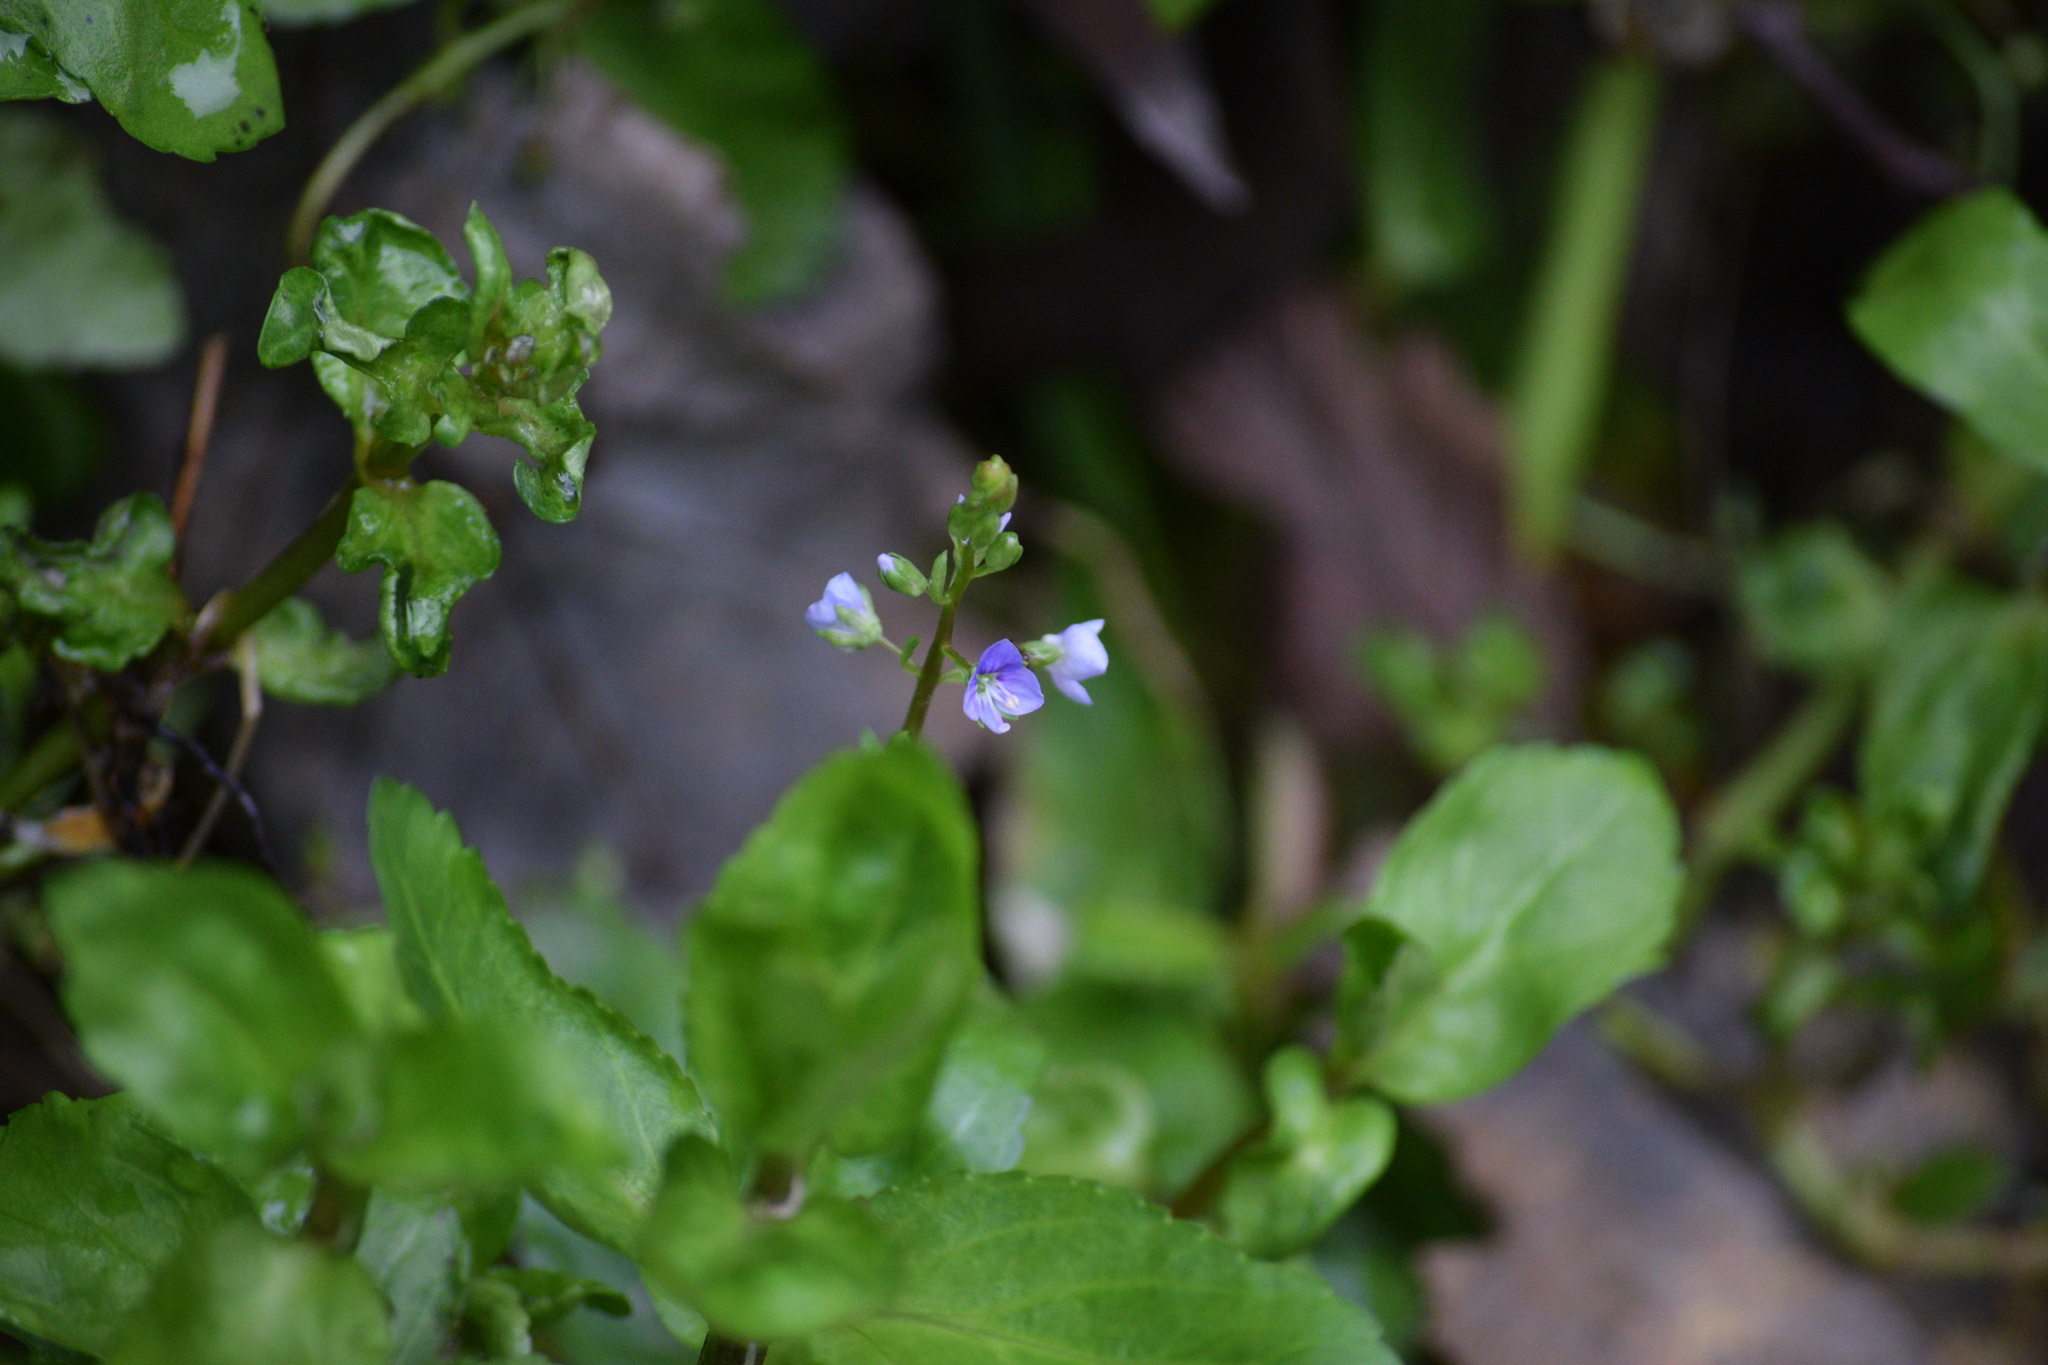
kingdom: Plantae
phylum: Tracheophyta
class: Magnoliopsida
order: Lamiales
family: Plantaginaceae
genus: Veronica
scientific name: Veronica americana
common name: American brooklime
